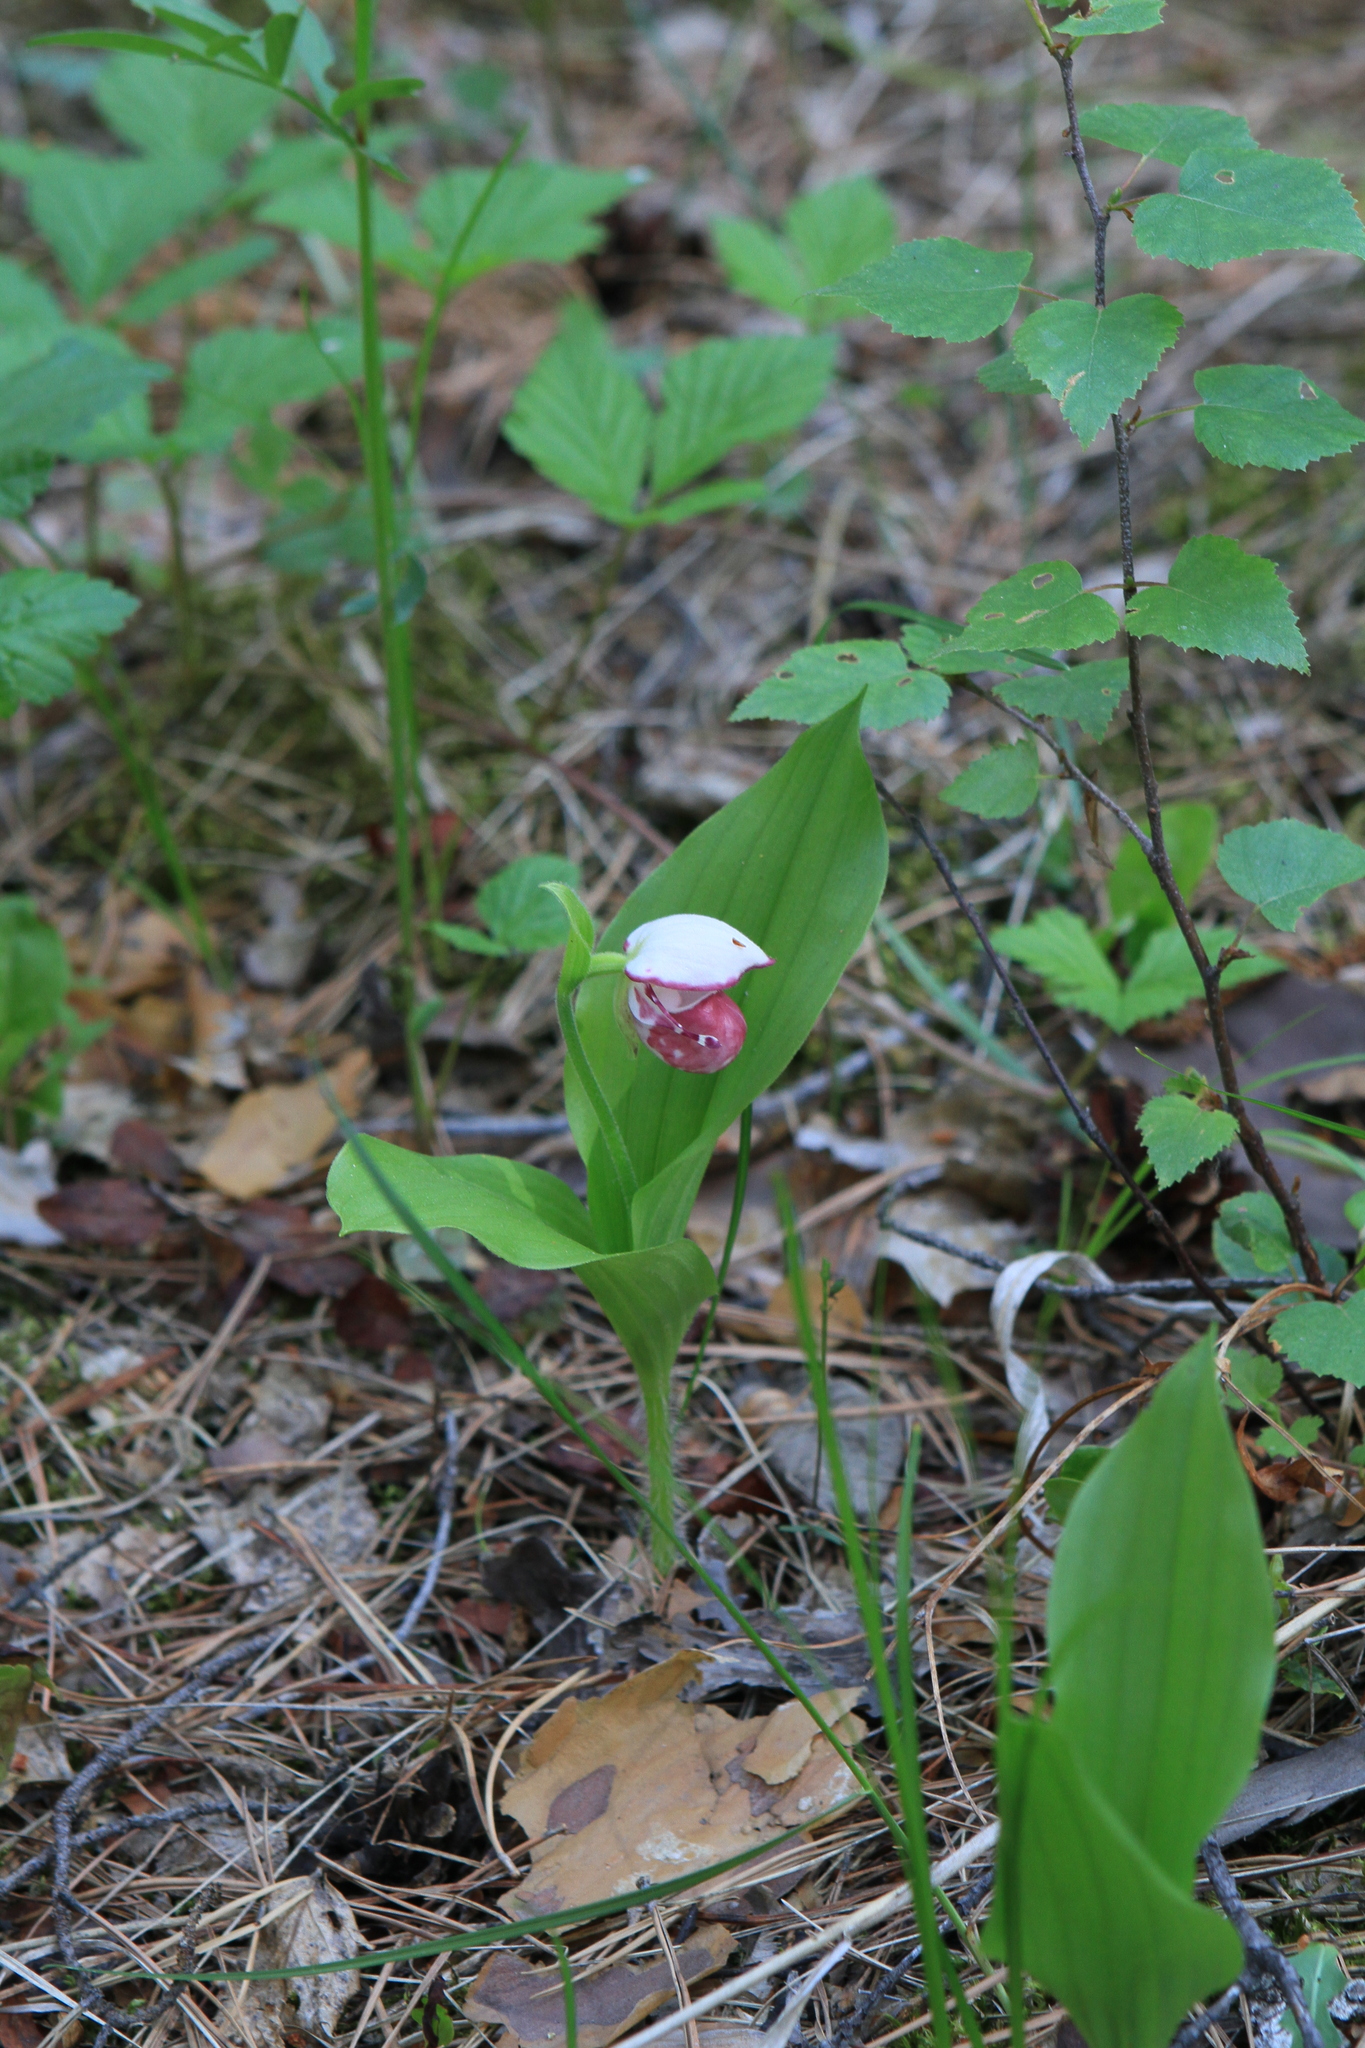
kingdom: Plantae
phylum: Tracheophyta
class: Liliopsida
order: Asparagales
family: Orchidaceae
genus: Cypripedium
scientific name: Cypripedium guttatum
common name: Pink lady slipper
